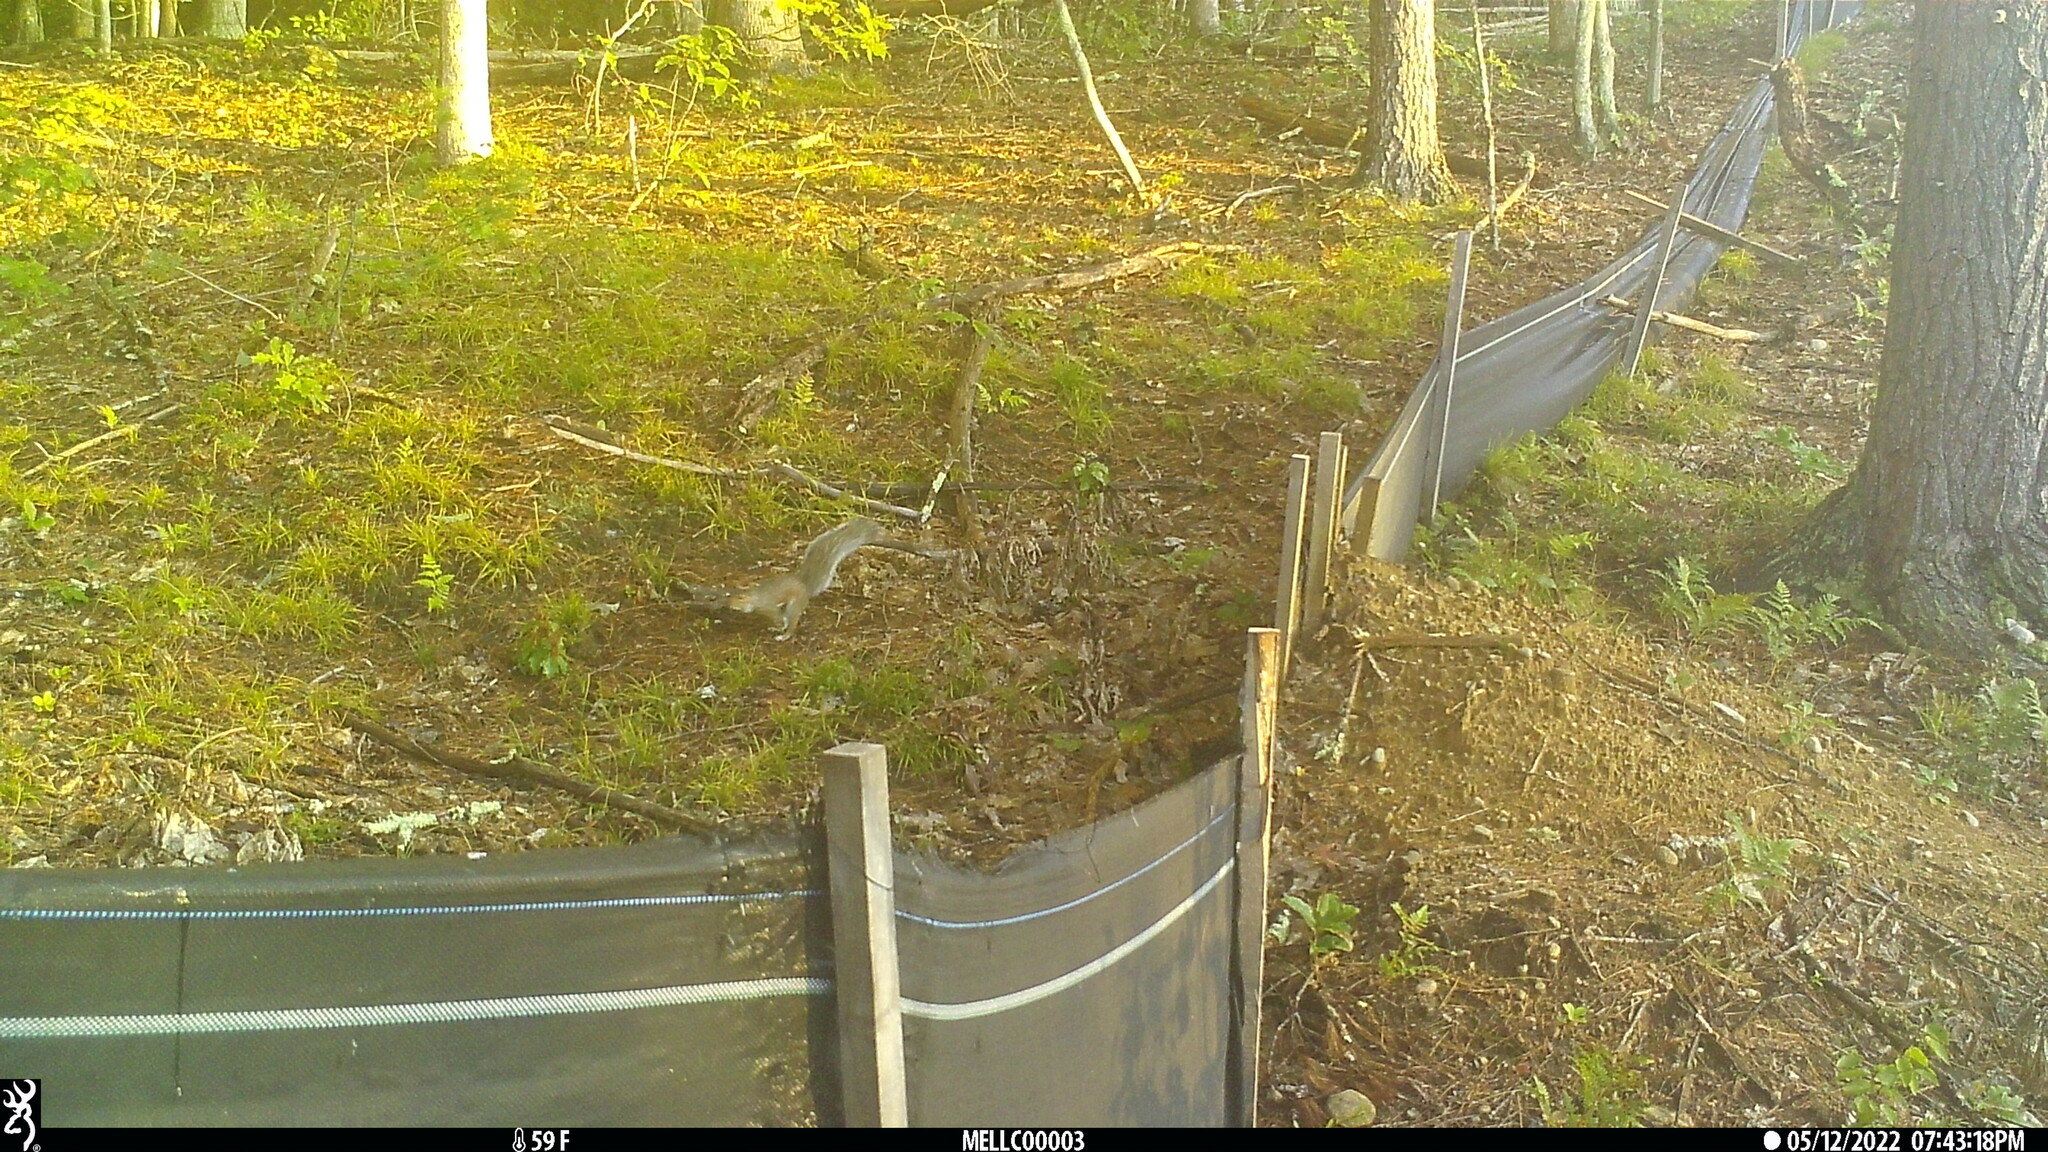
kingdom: Animalia
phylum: Chordata
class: Mammalia
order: Rodentia
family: Sciuridae
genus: Sciurus
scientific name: Sciurus carolinensis
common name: Eastern gray squirrel
